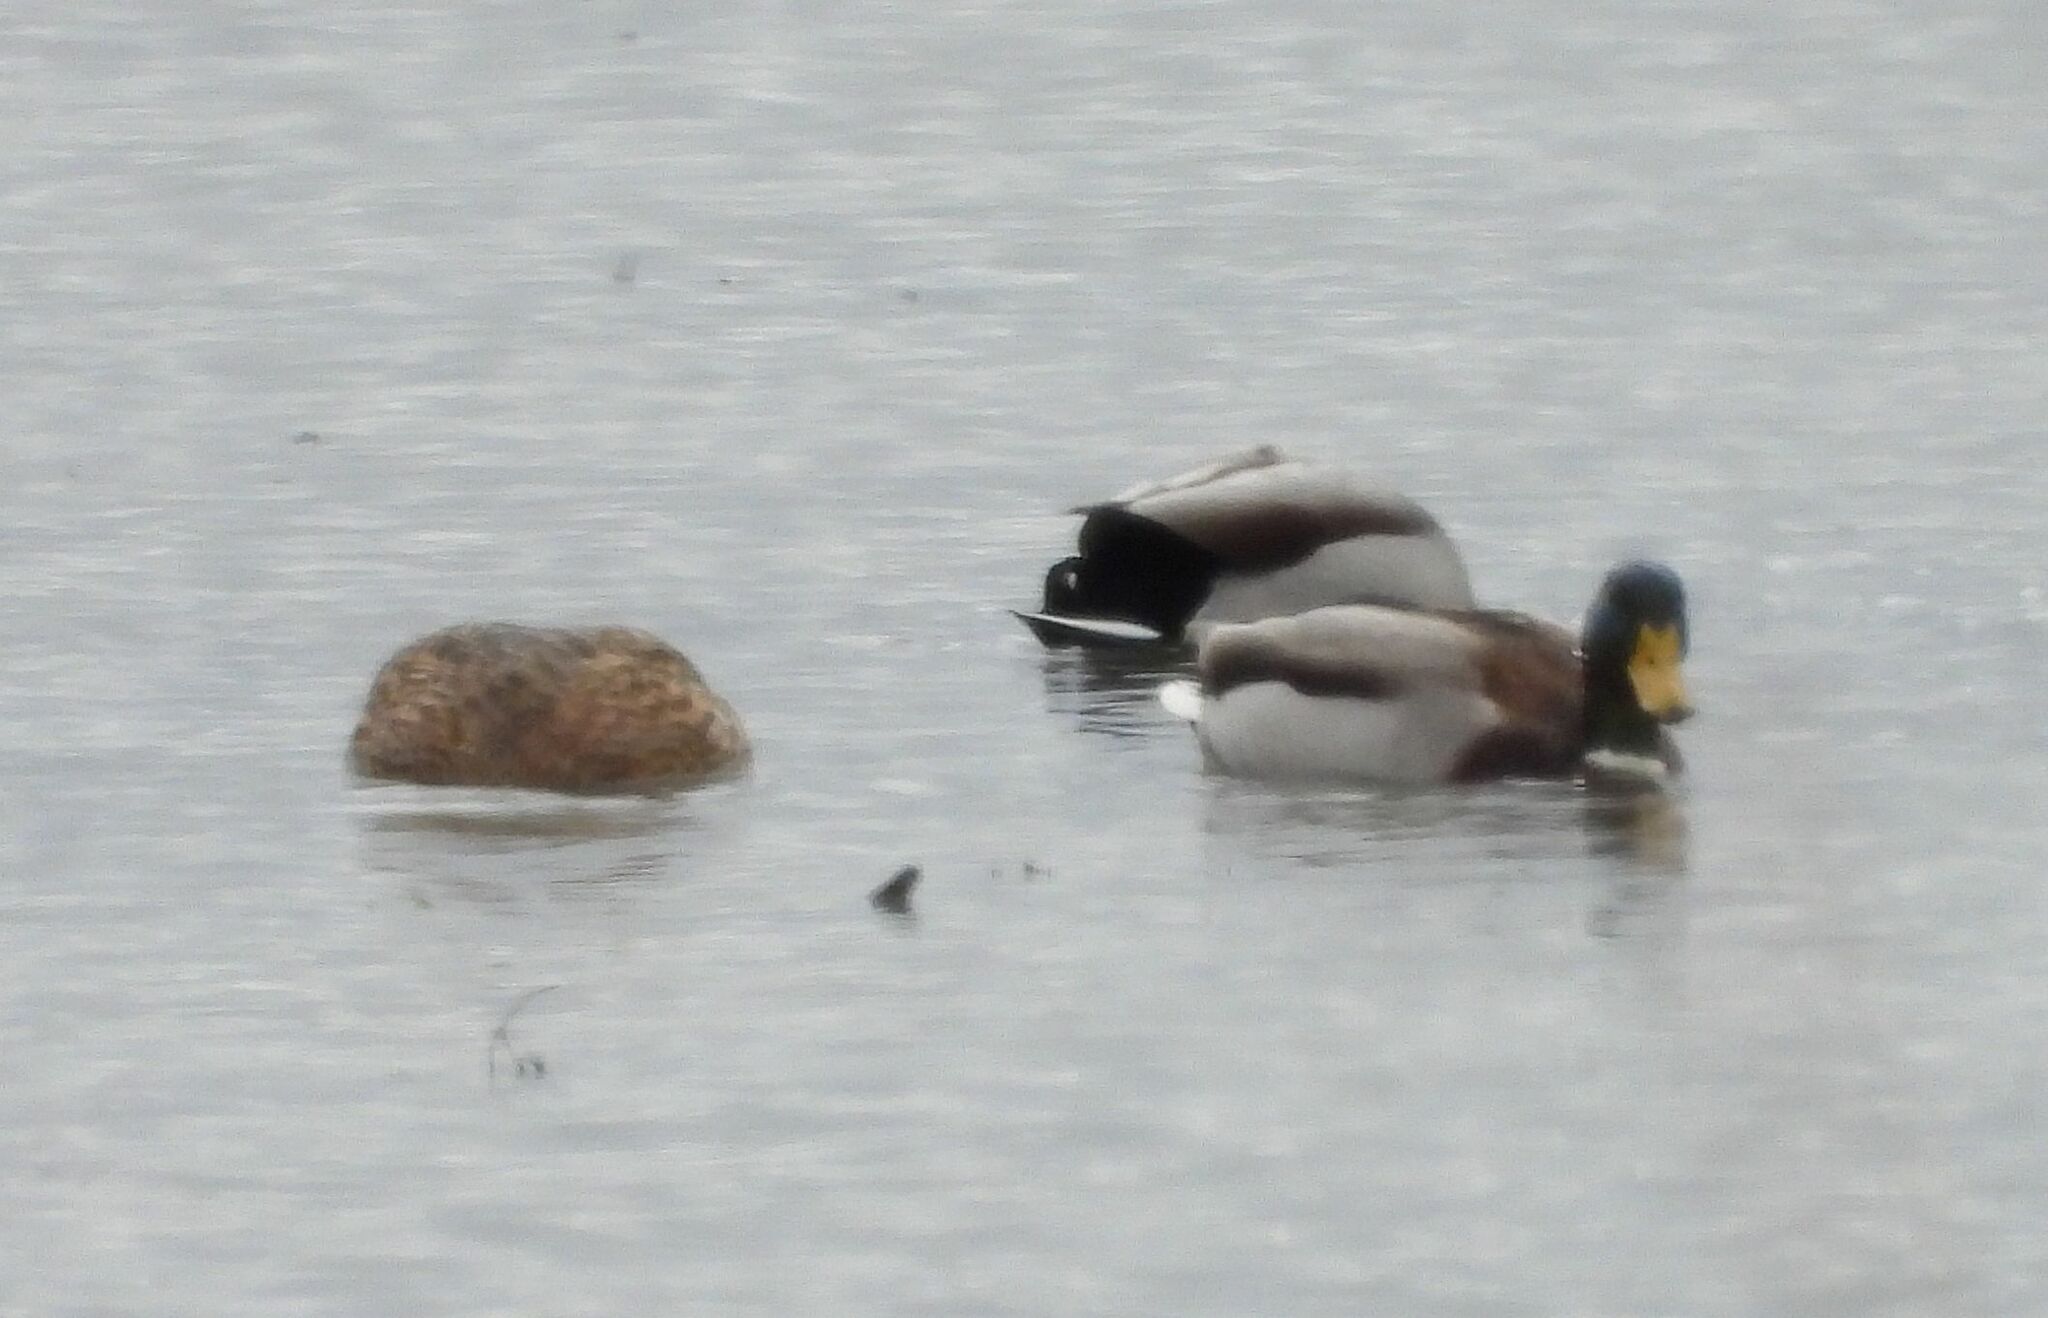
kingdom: Animalia
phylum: Chordata
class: Aves
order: Anseriformes
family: Anatidae
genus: Anas
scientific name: Anas platyrhynchos
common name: Mallard
